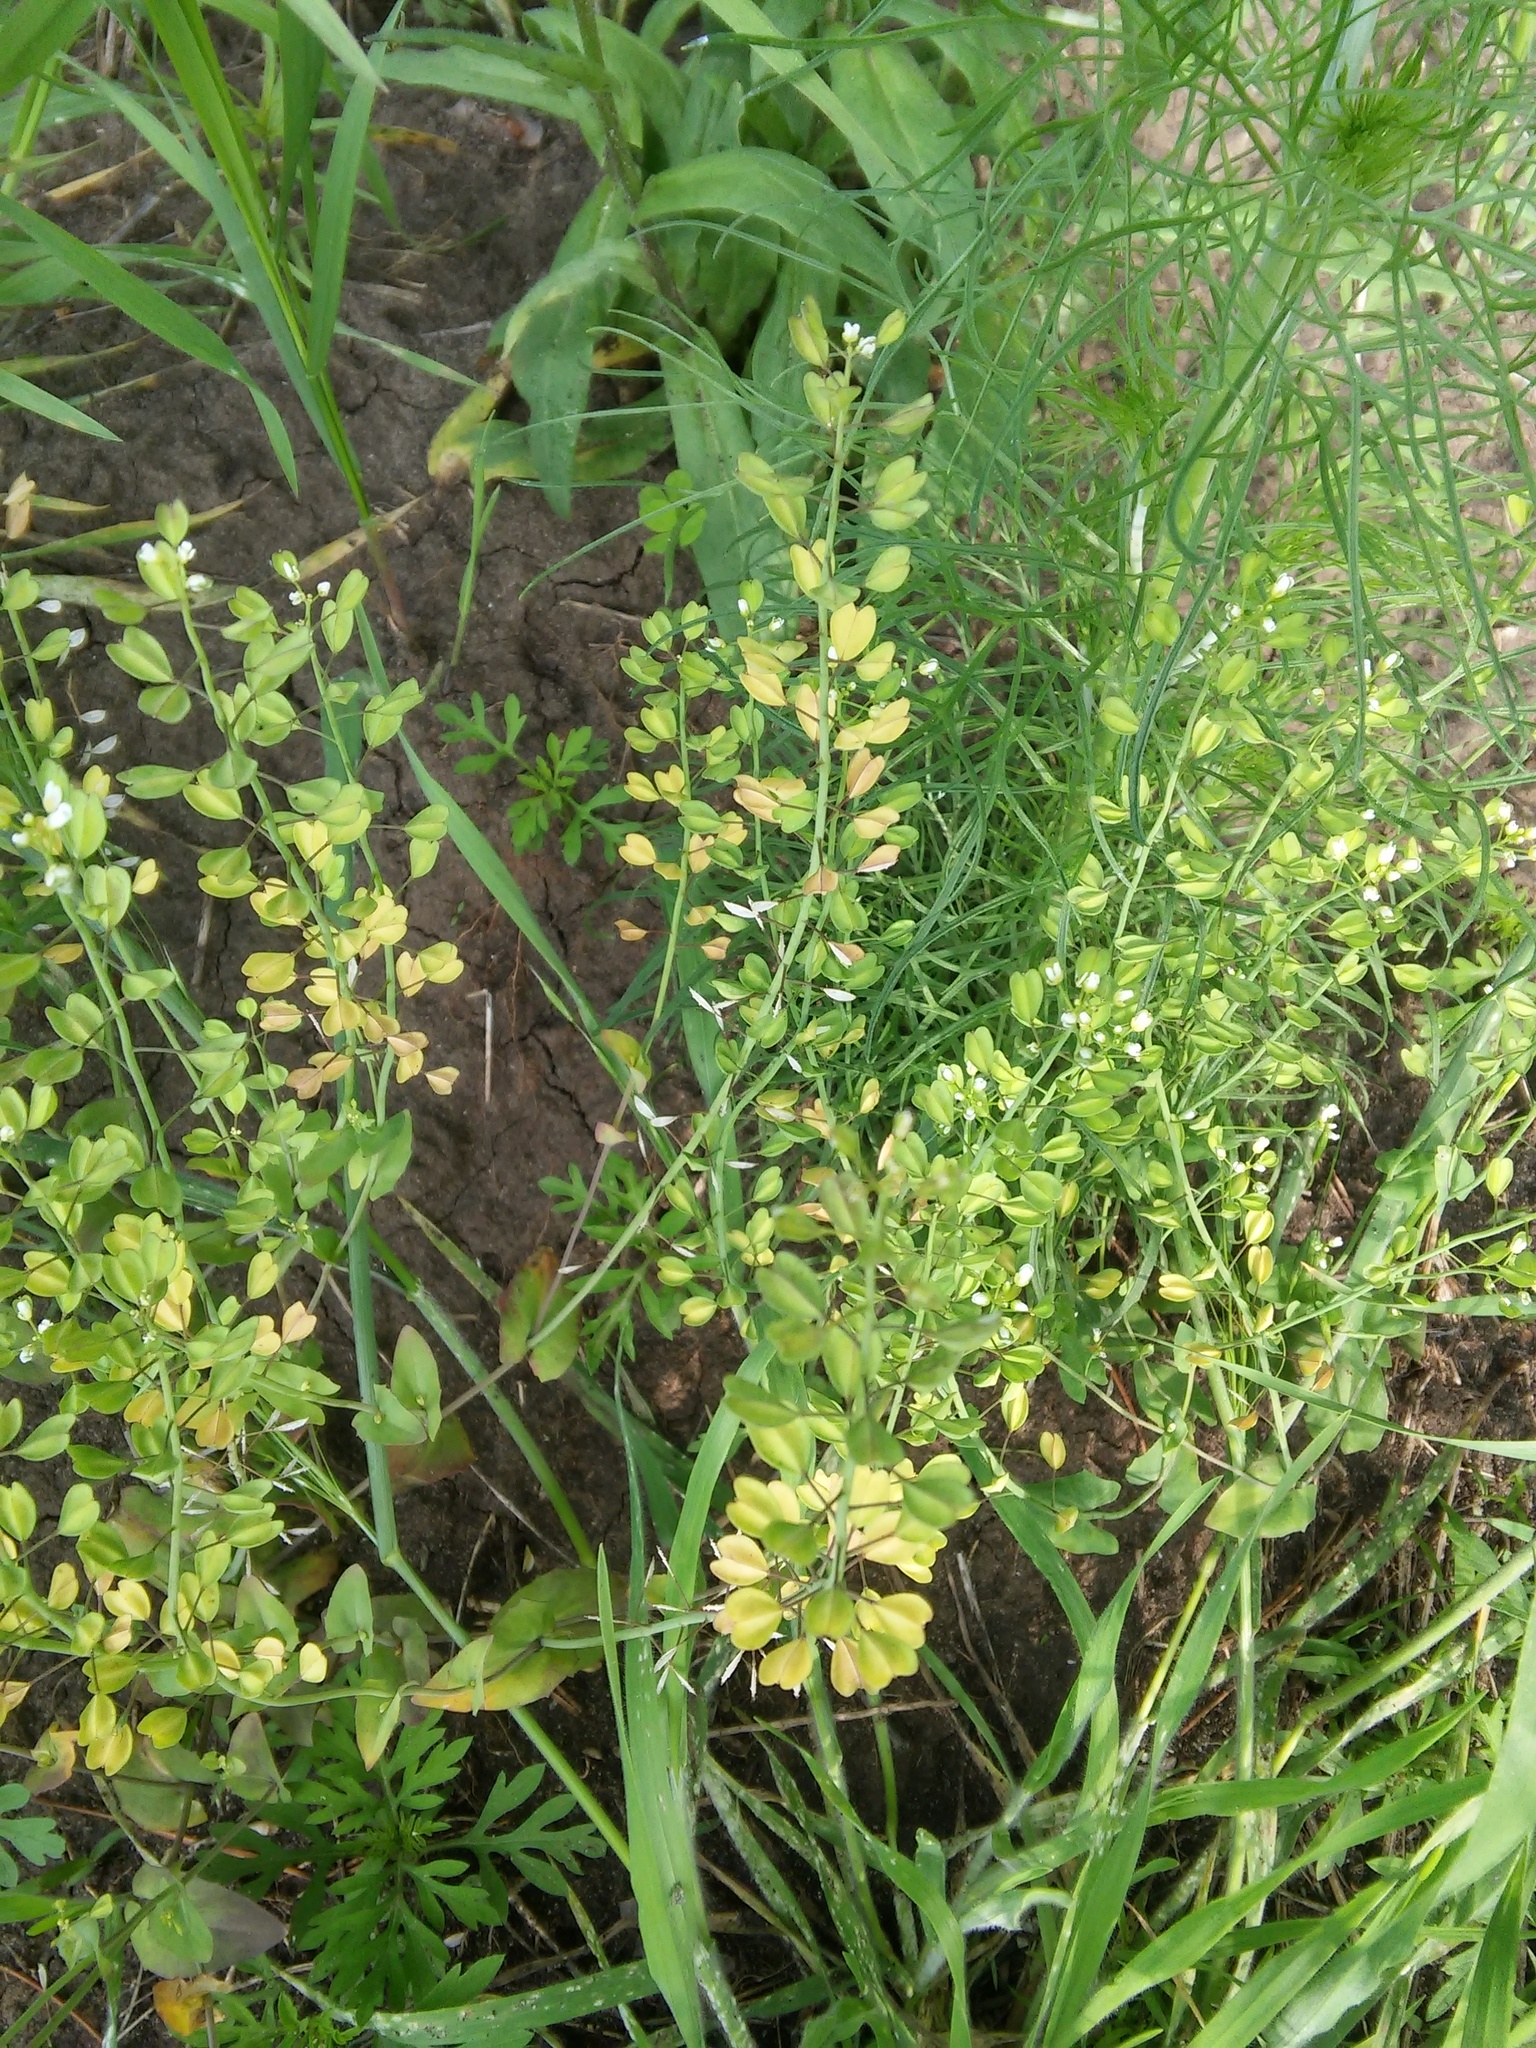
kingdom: Plantae
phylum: Tracheophyta
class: Magnoliopsida
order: Brassicales
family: Brassicaceae
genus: Noccaea
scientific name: Noccaea perfoliata
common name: Perfoliate pennycress
